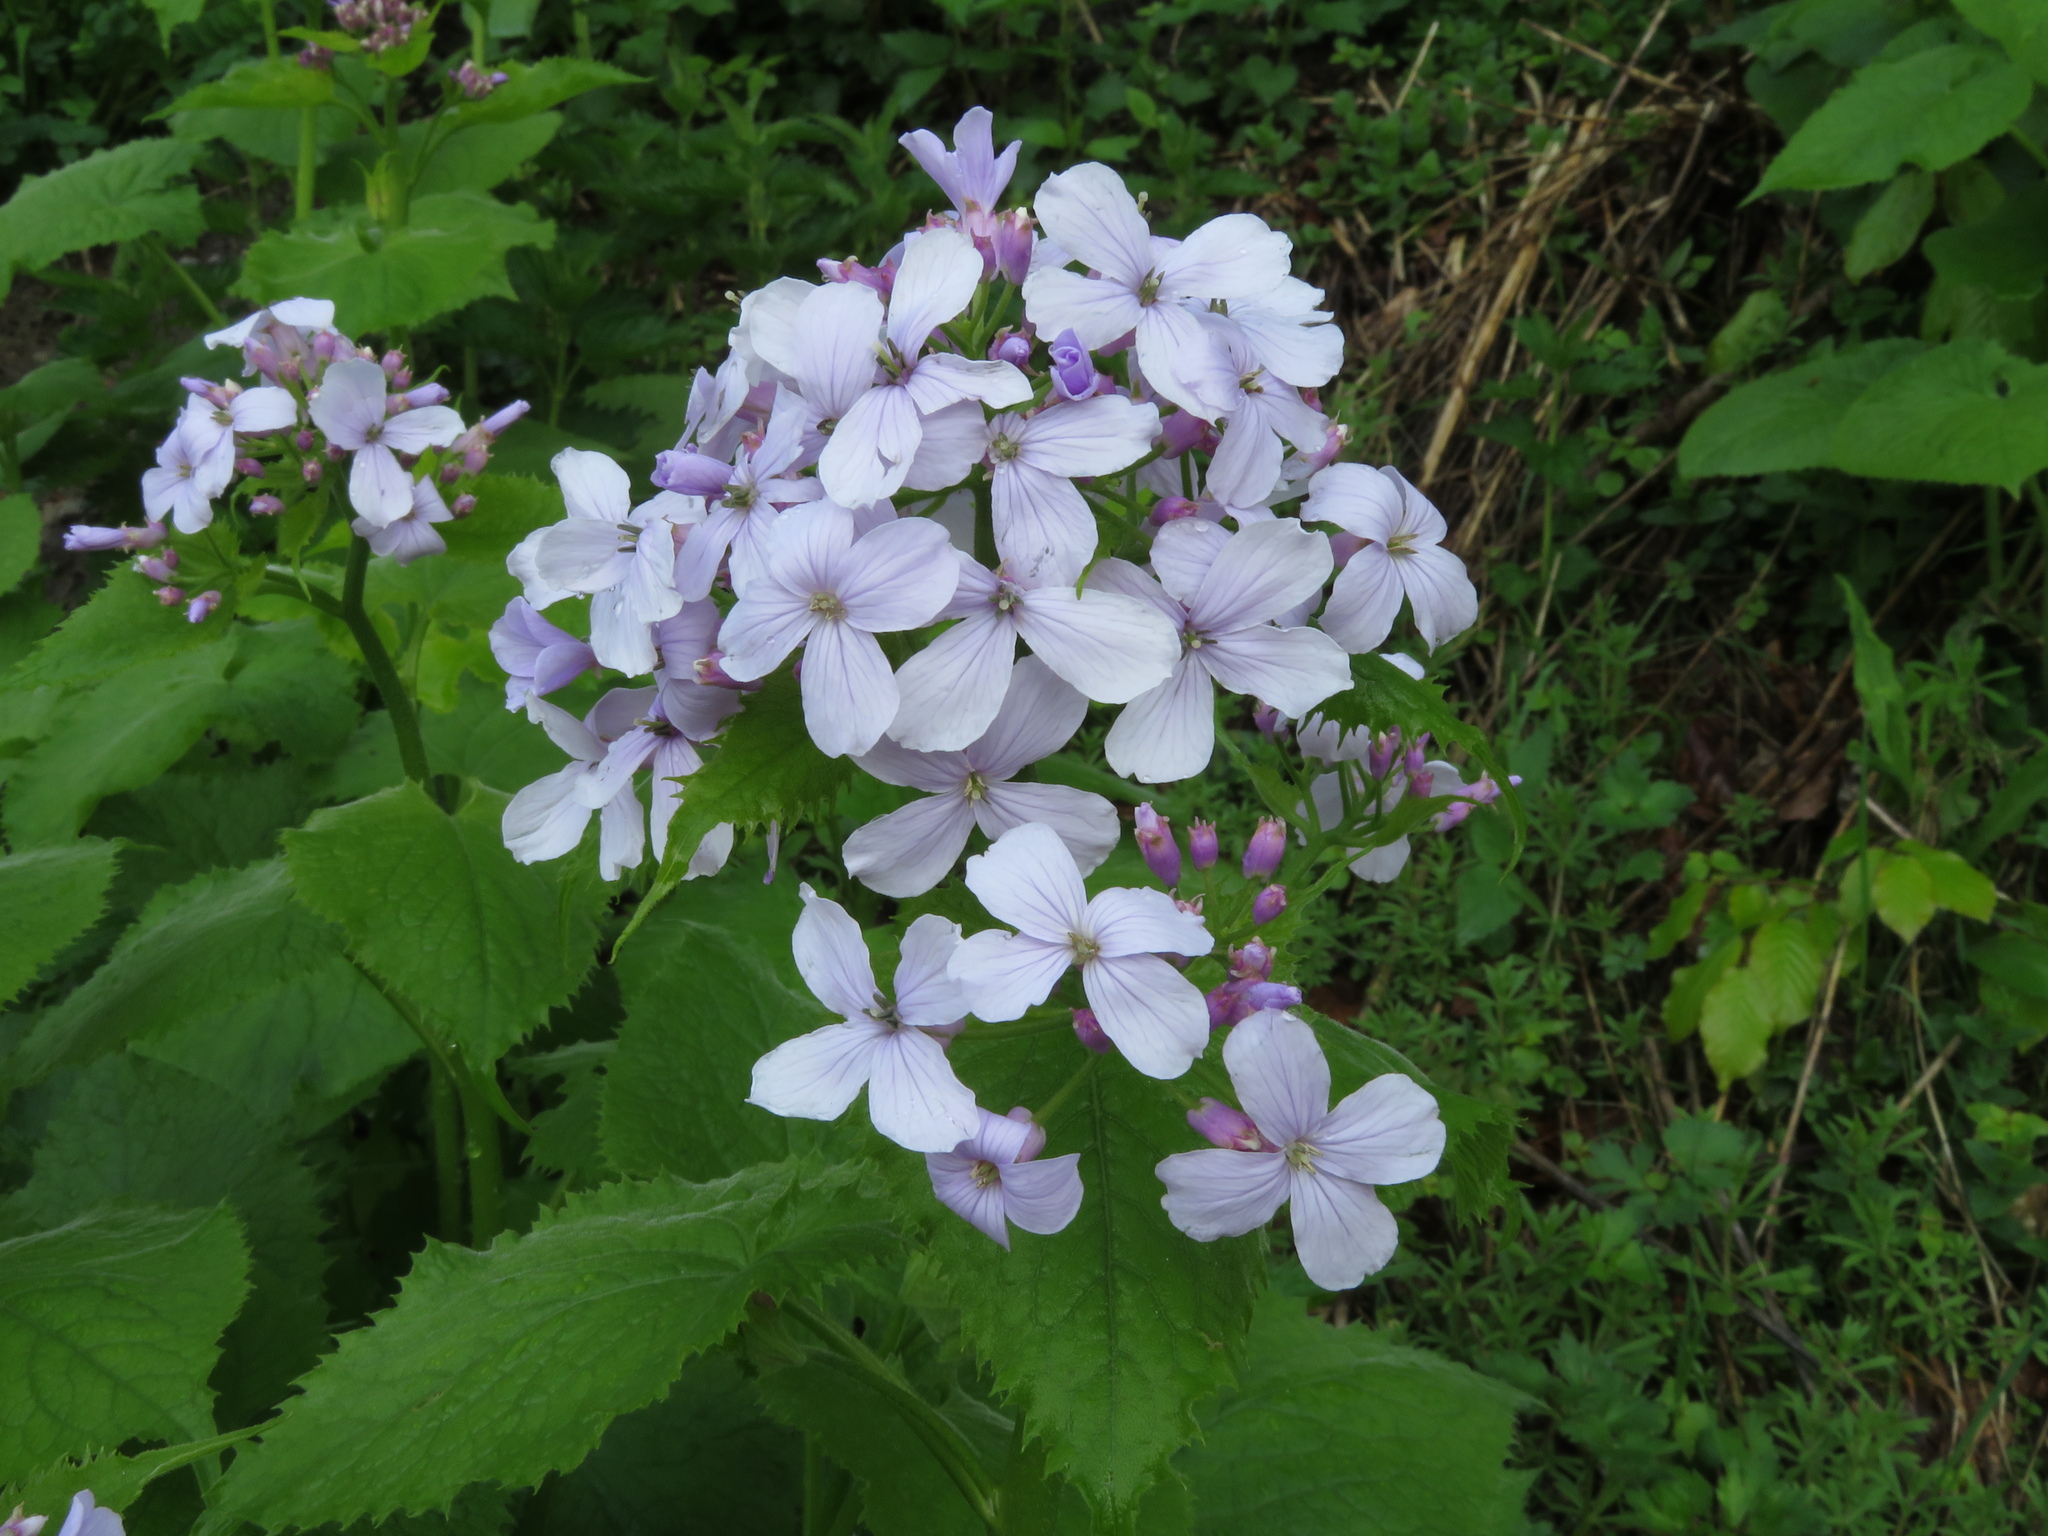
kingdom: Plantae
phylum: Tracheophyta
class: Magnoliopsida
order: Brassicales
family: Brassicaceae
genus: Lunaria
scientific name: Lunaria rediviva
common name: Perennial honesty
